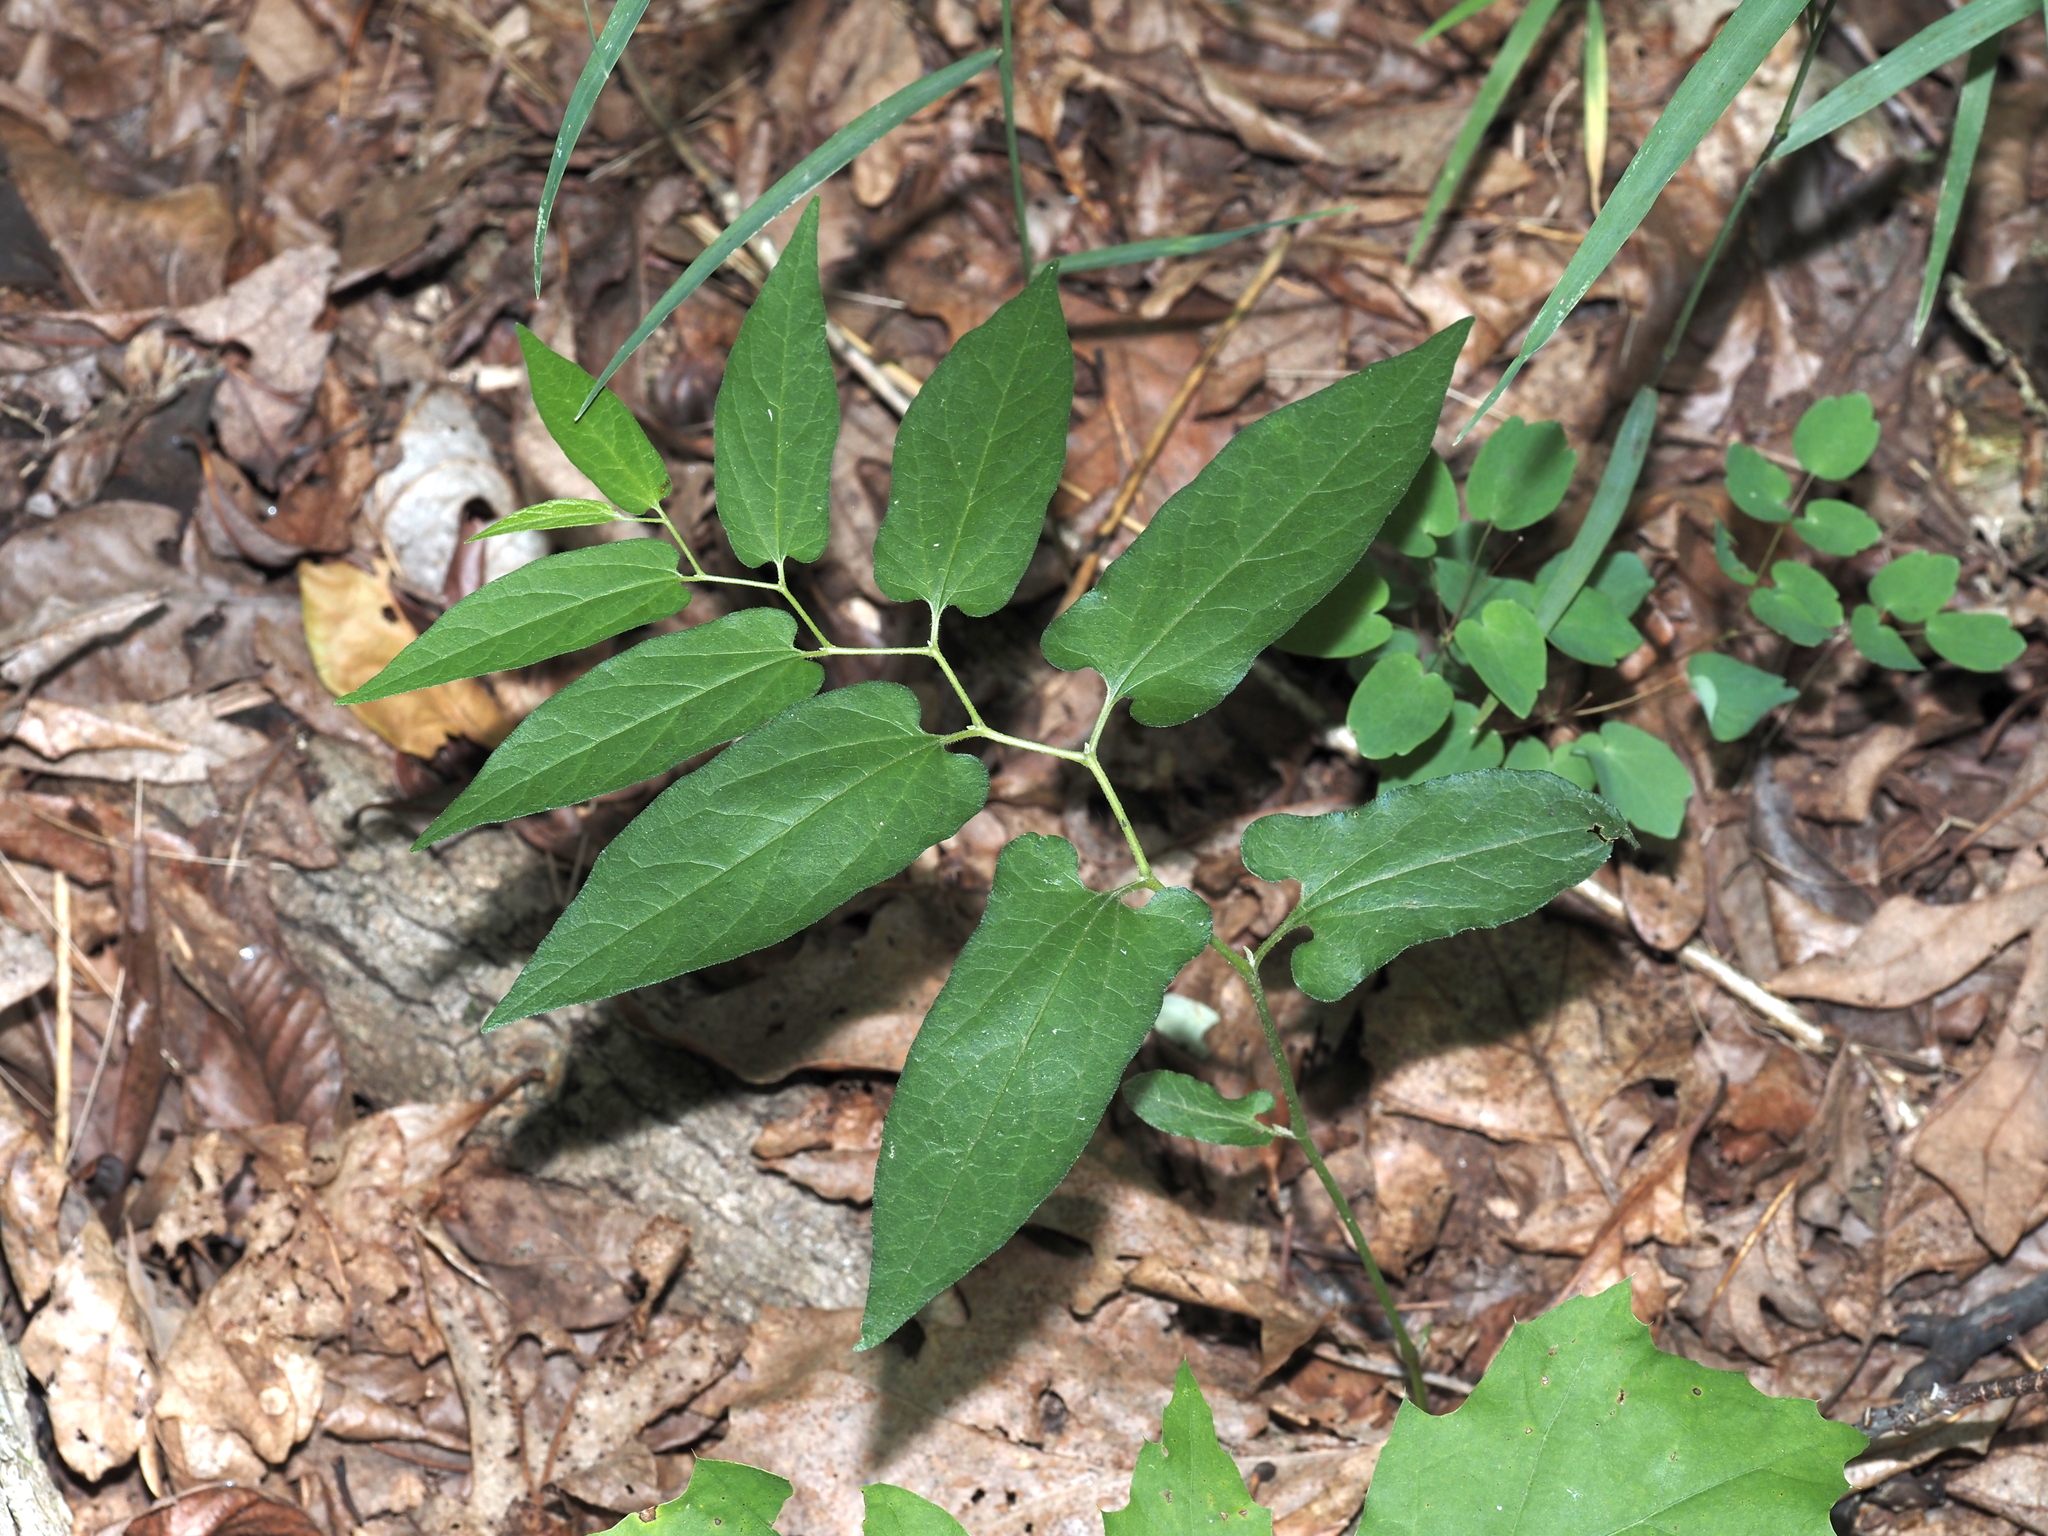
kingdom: Plantae
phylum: Tracheophyta
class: Magnoliopsida
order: Piperales
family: Aristolochiaceae
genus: Endodeca
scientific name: Endodeca serpentaria
